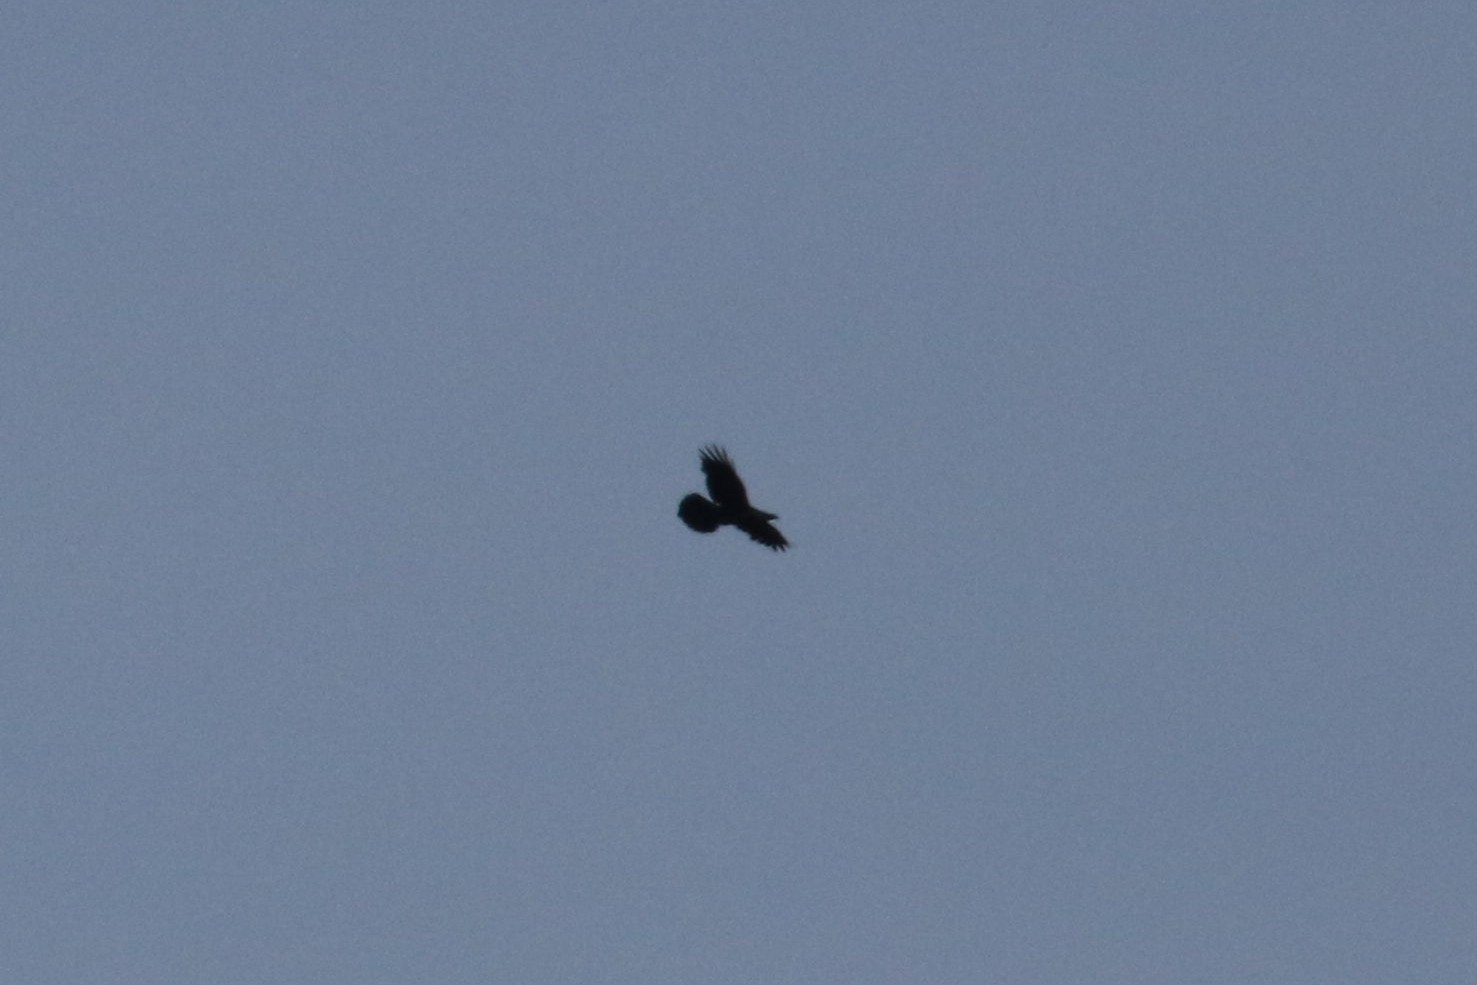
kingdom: Animalia
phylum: Chordata
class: Aves
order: Passeriformes
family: Corvidae
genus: Corvus
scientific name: Corvus corax
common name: Common raven
